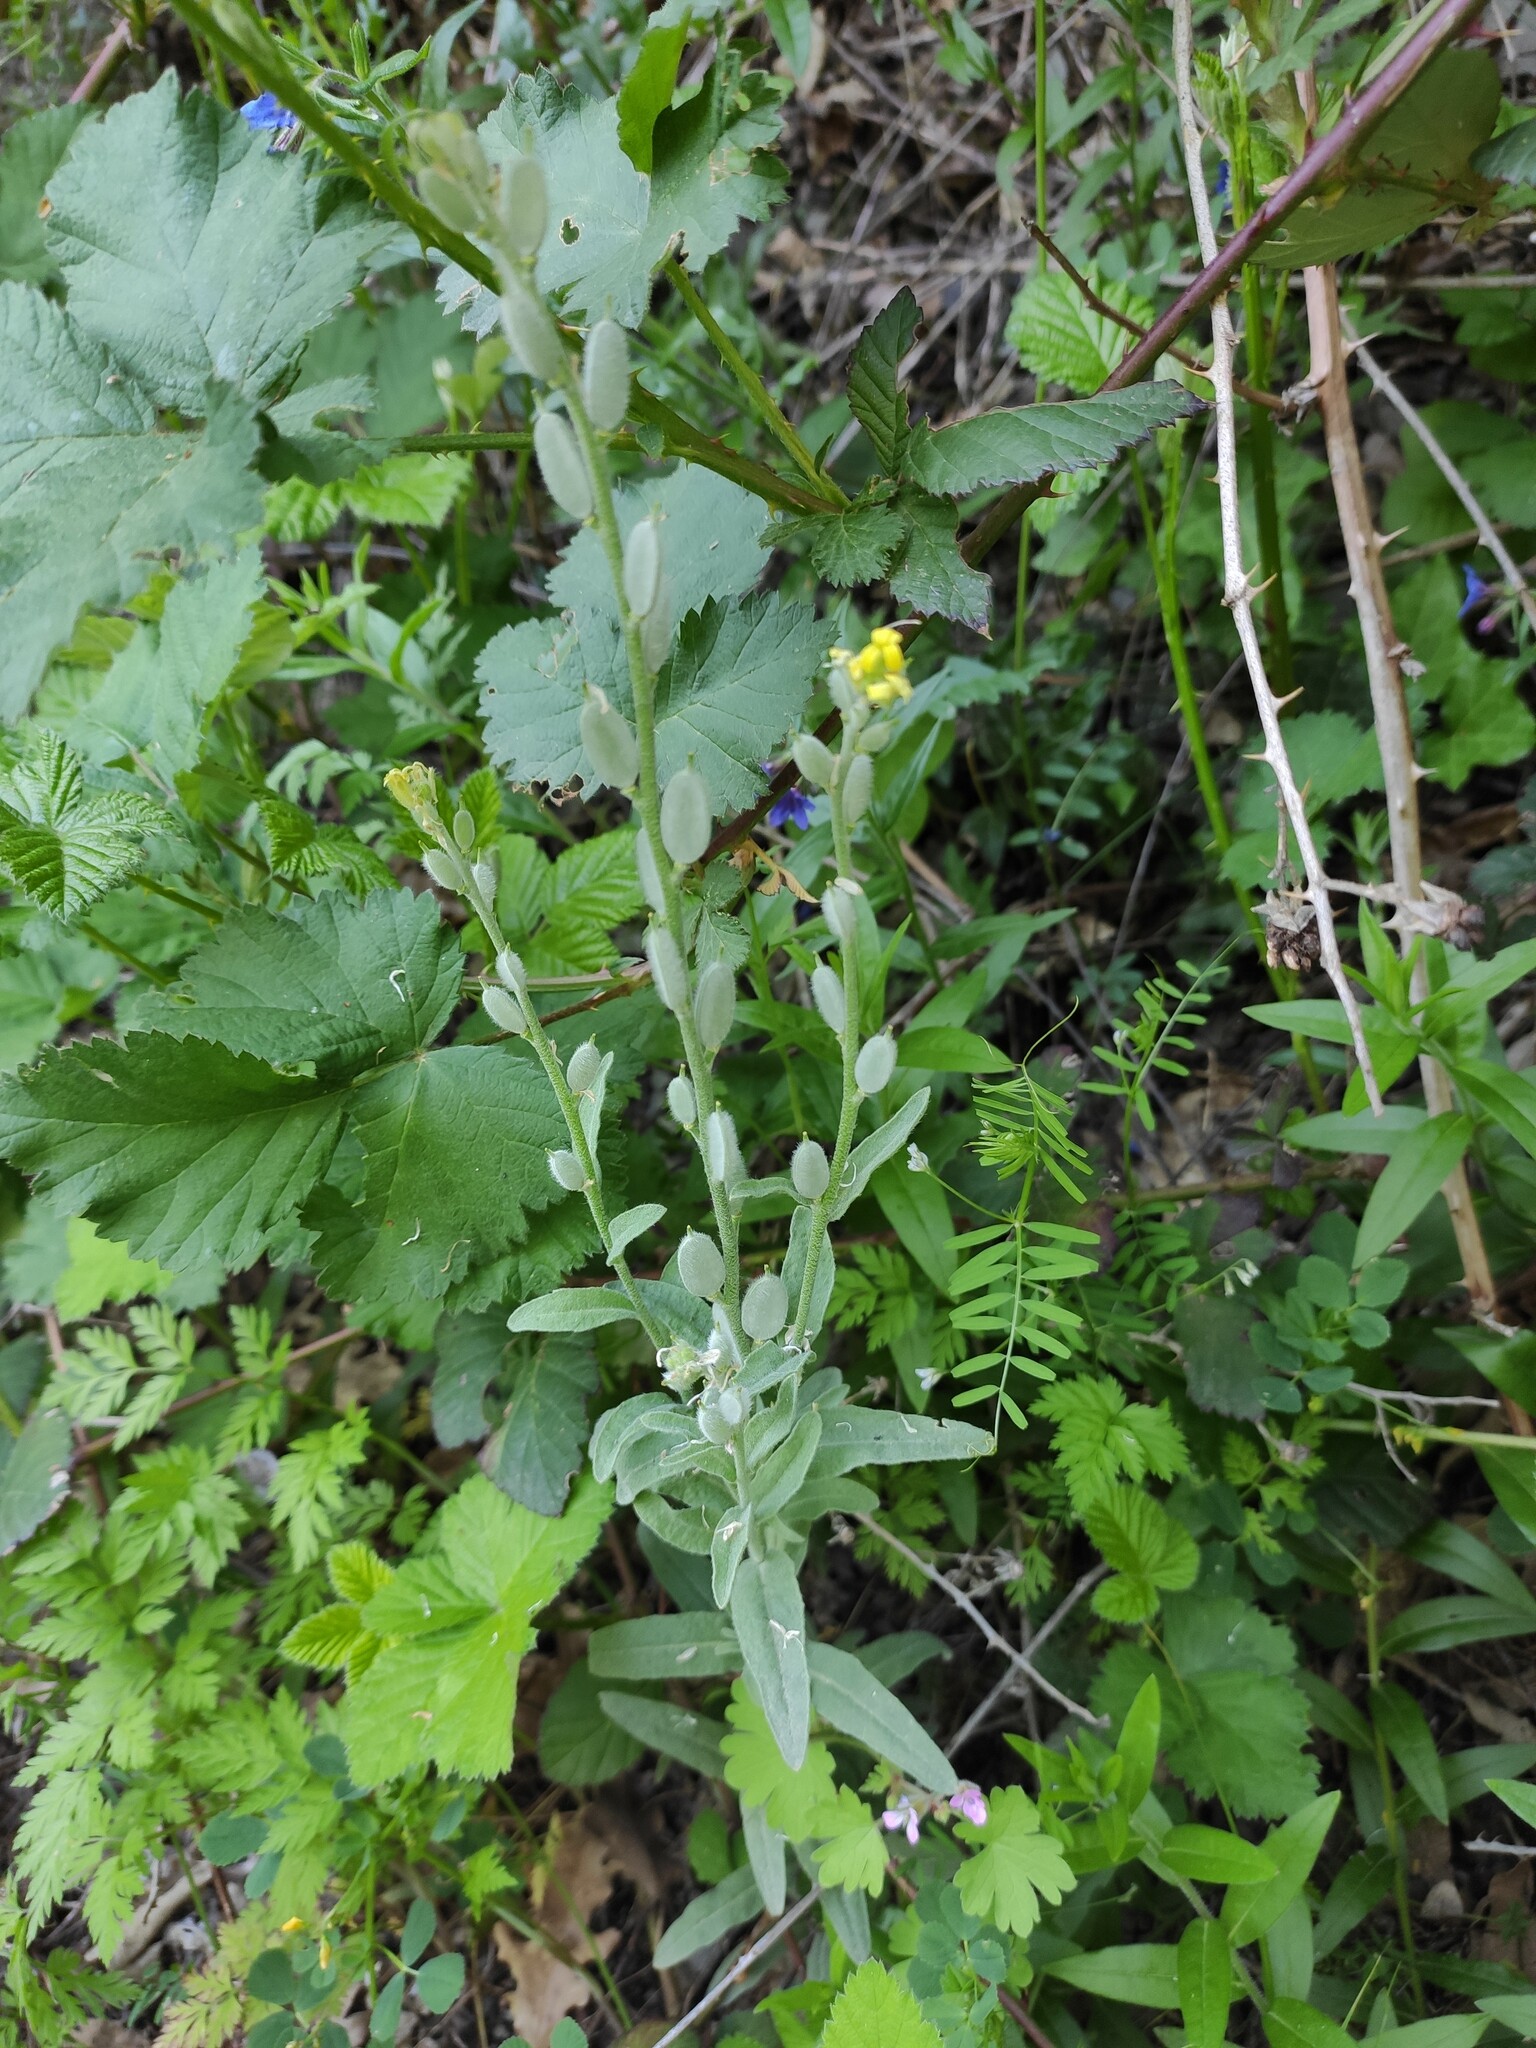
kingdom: Plantae
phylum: Tracheophyta
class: Magnoliopsida
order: Brassicales
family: Brassicaceae
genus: Fibigia
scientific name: Fibigia clypeata
